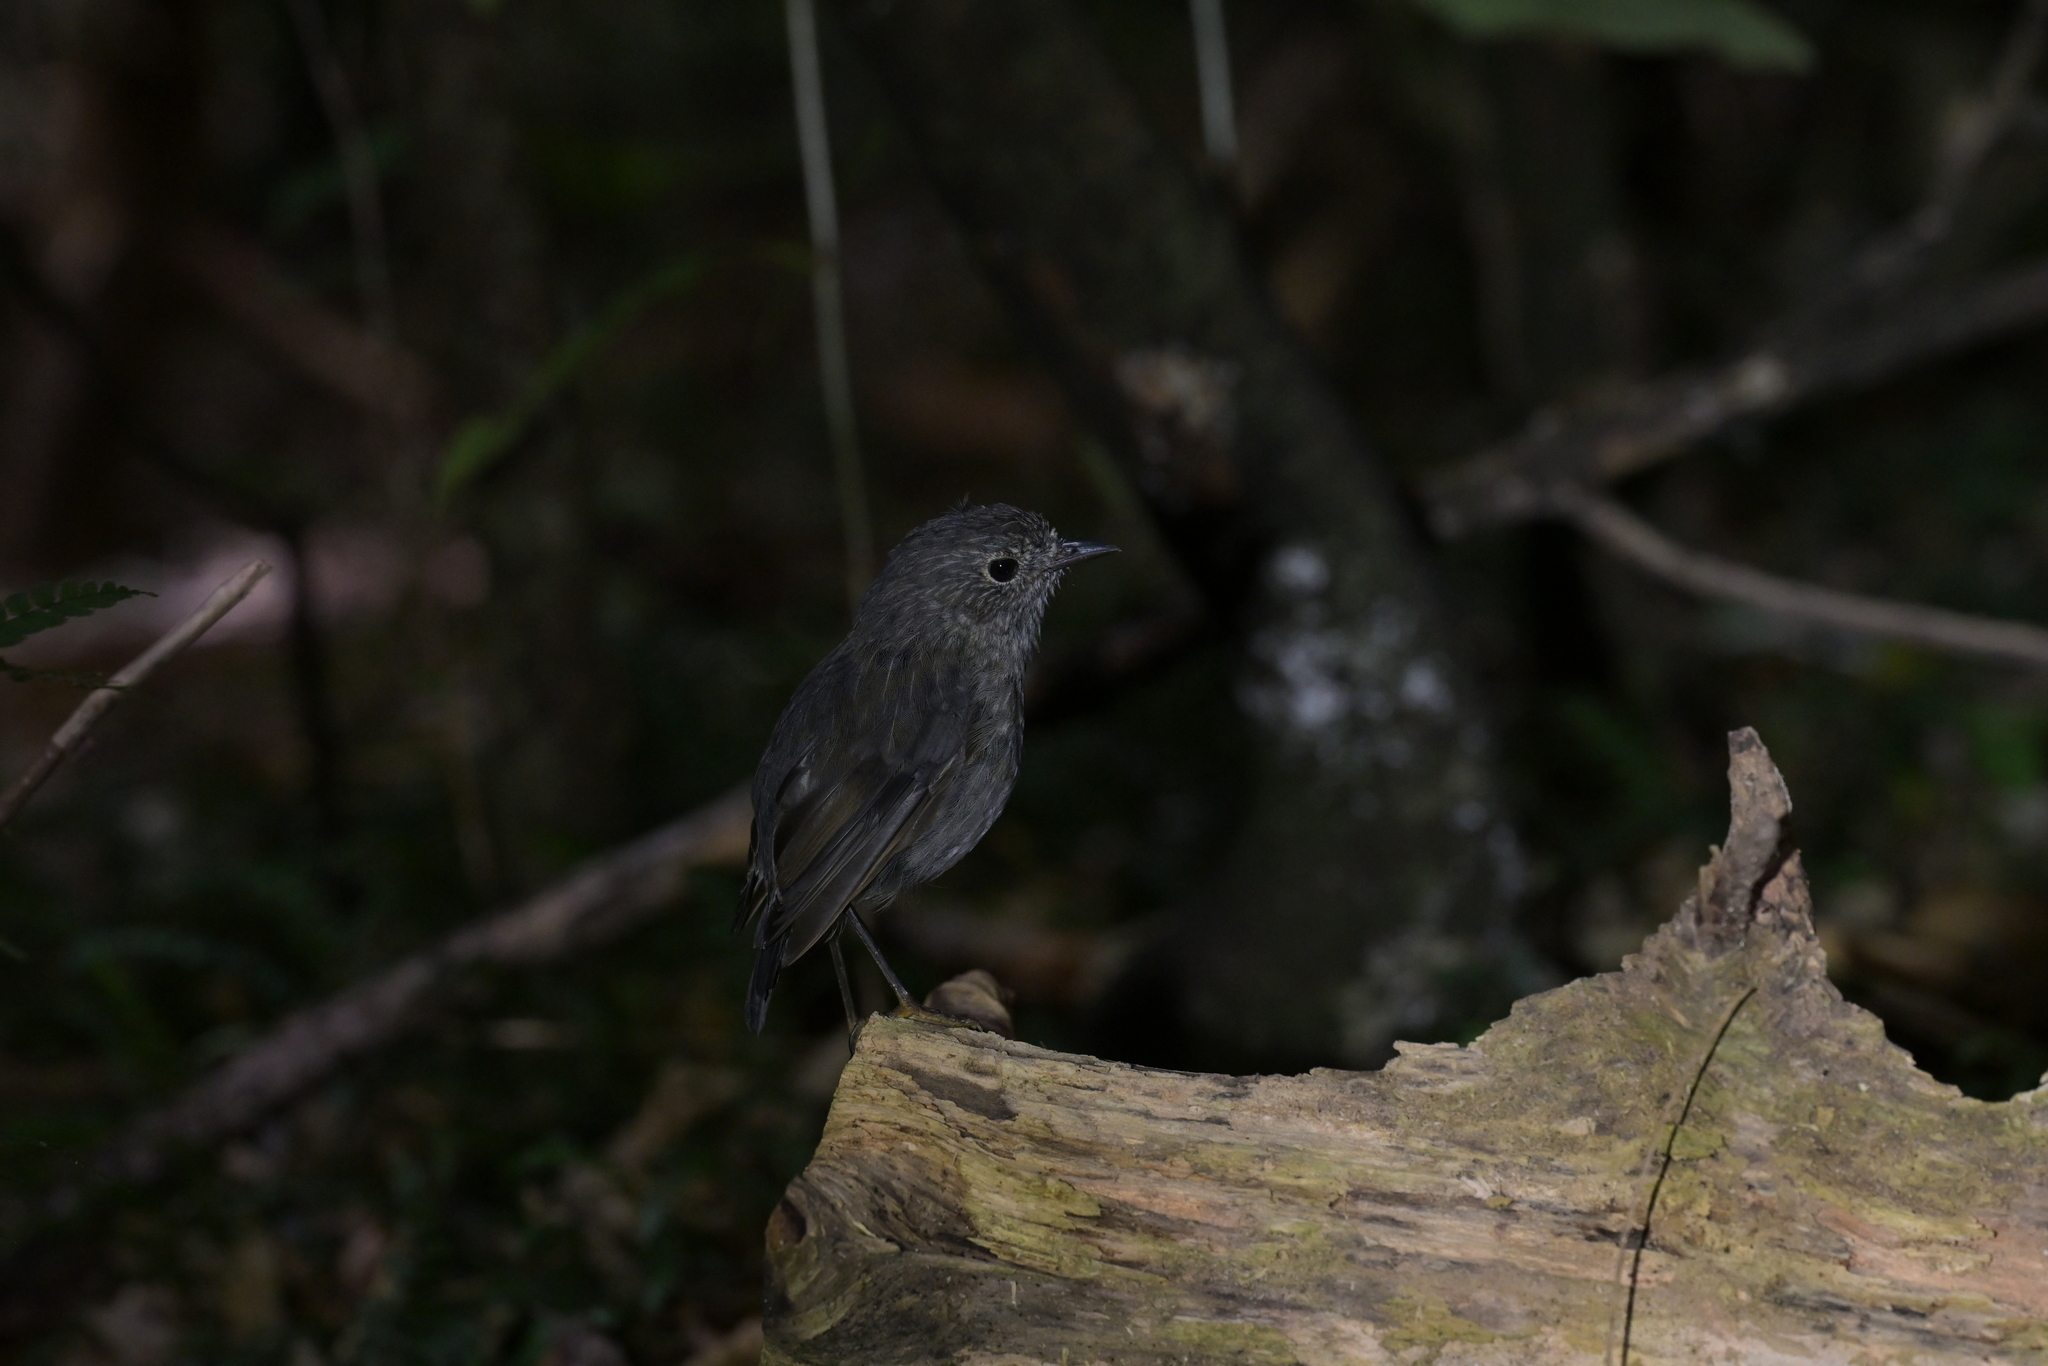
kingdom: Animalia
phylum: Chordata
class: Aves
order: Passeriformes
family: Petroicidae
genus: Petroica
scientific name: Petroica australis
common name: New zealand robin
